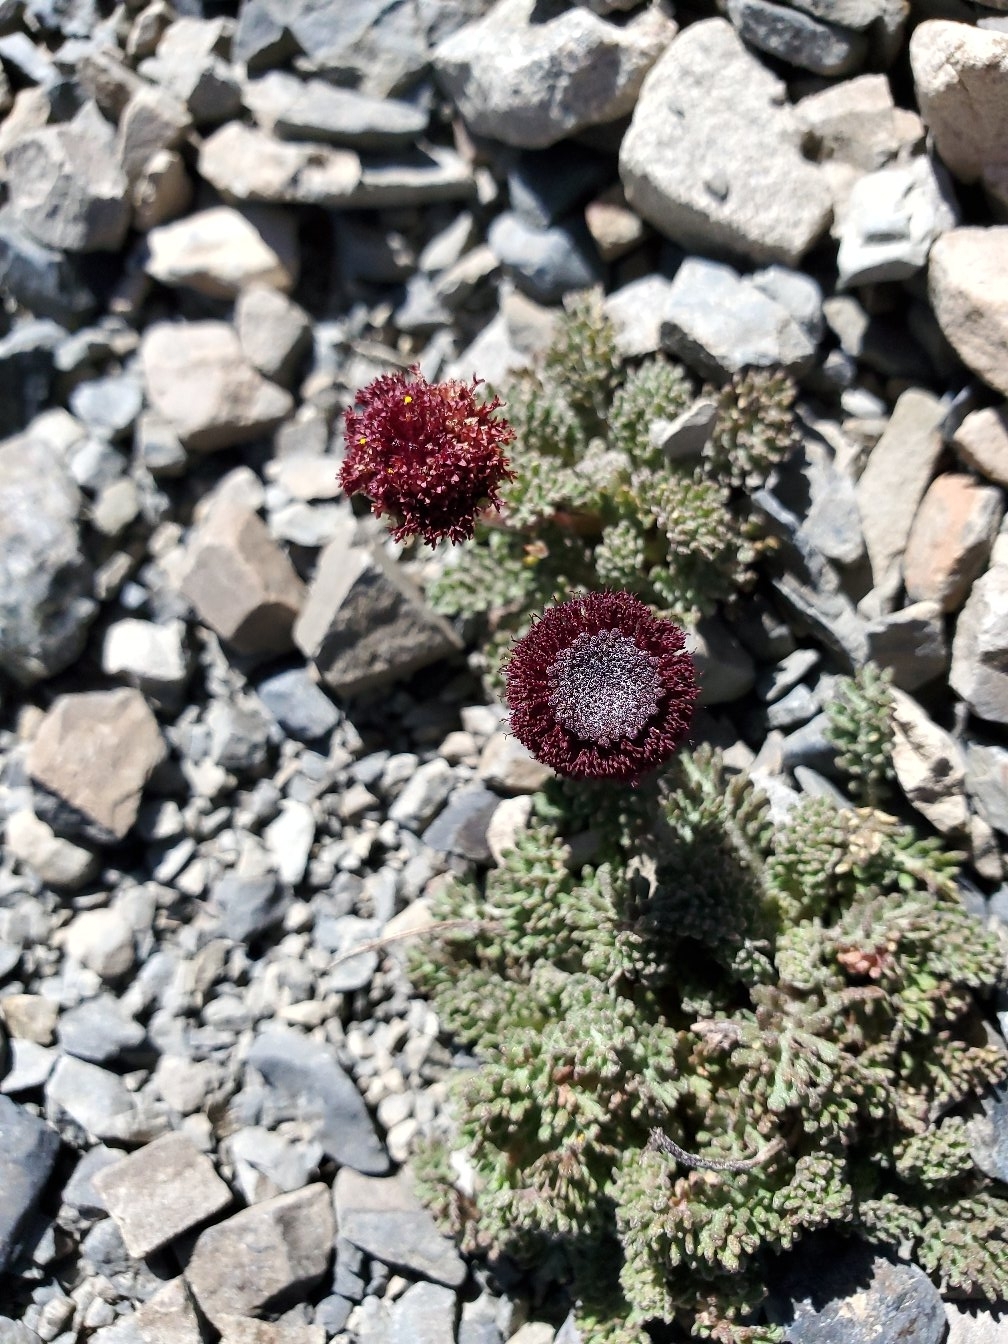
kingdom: Plantae
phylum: Tracheophyta
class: Magnoliopsida
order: Asterales
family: Asteraceae
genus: Leptinella
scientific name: Leptinella atrata
